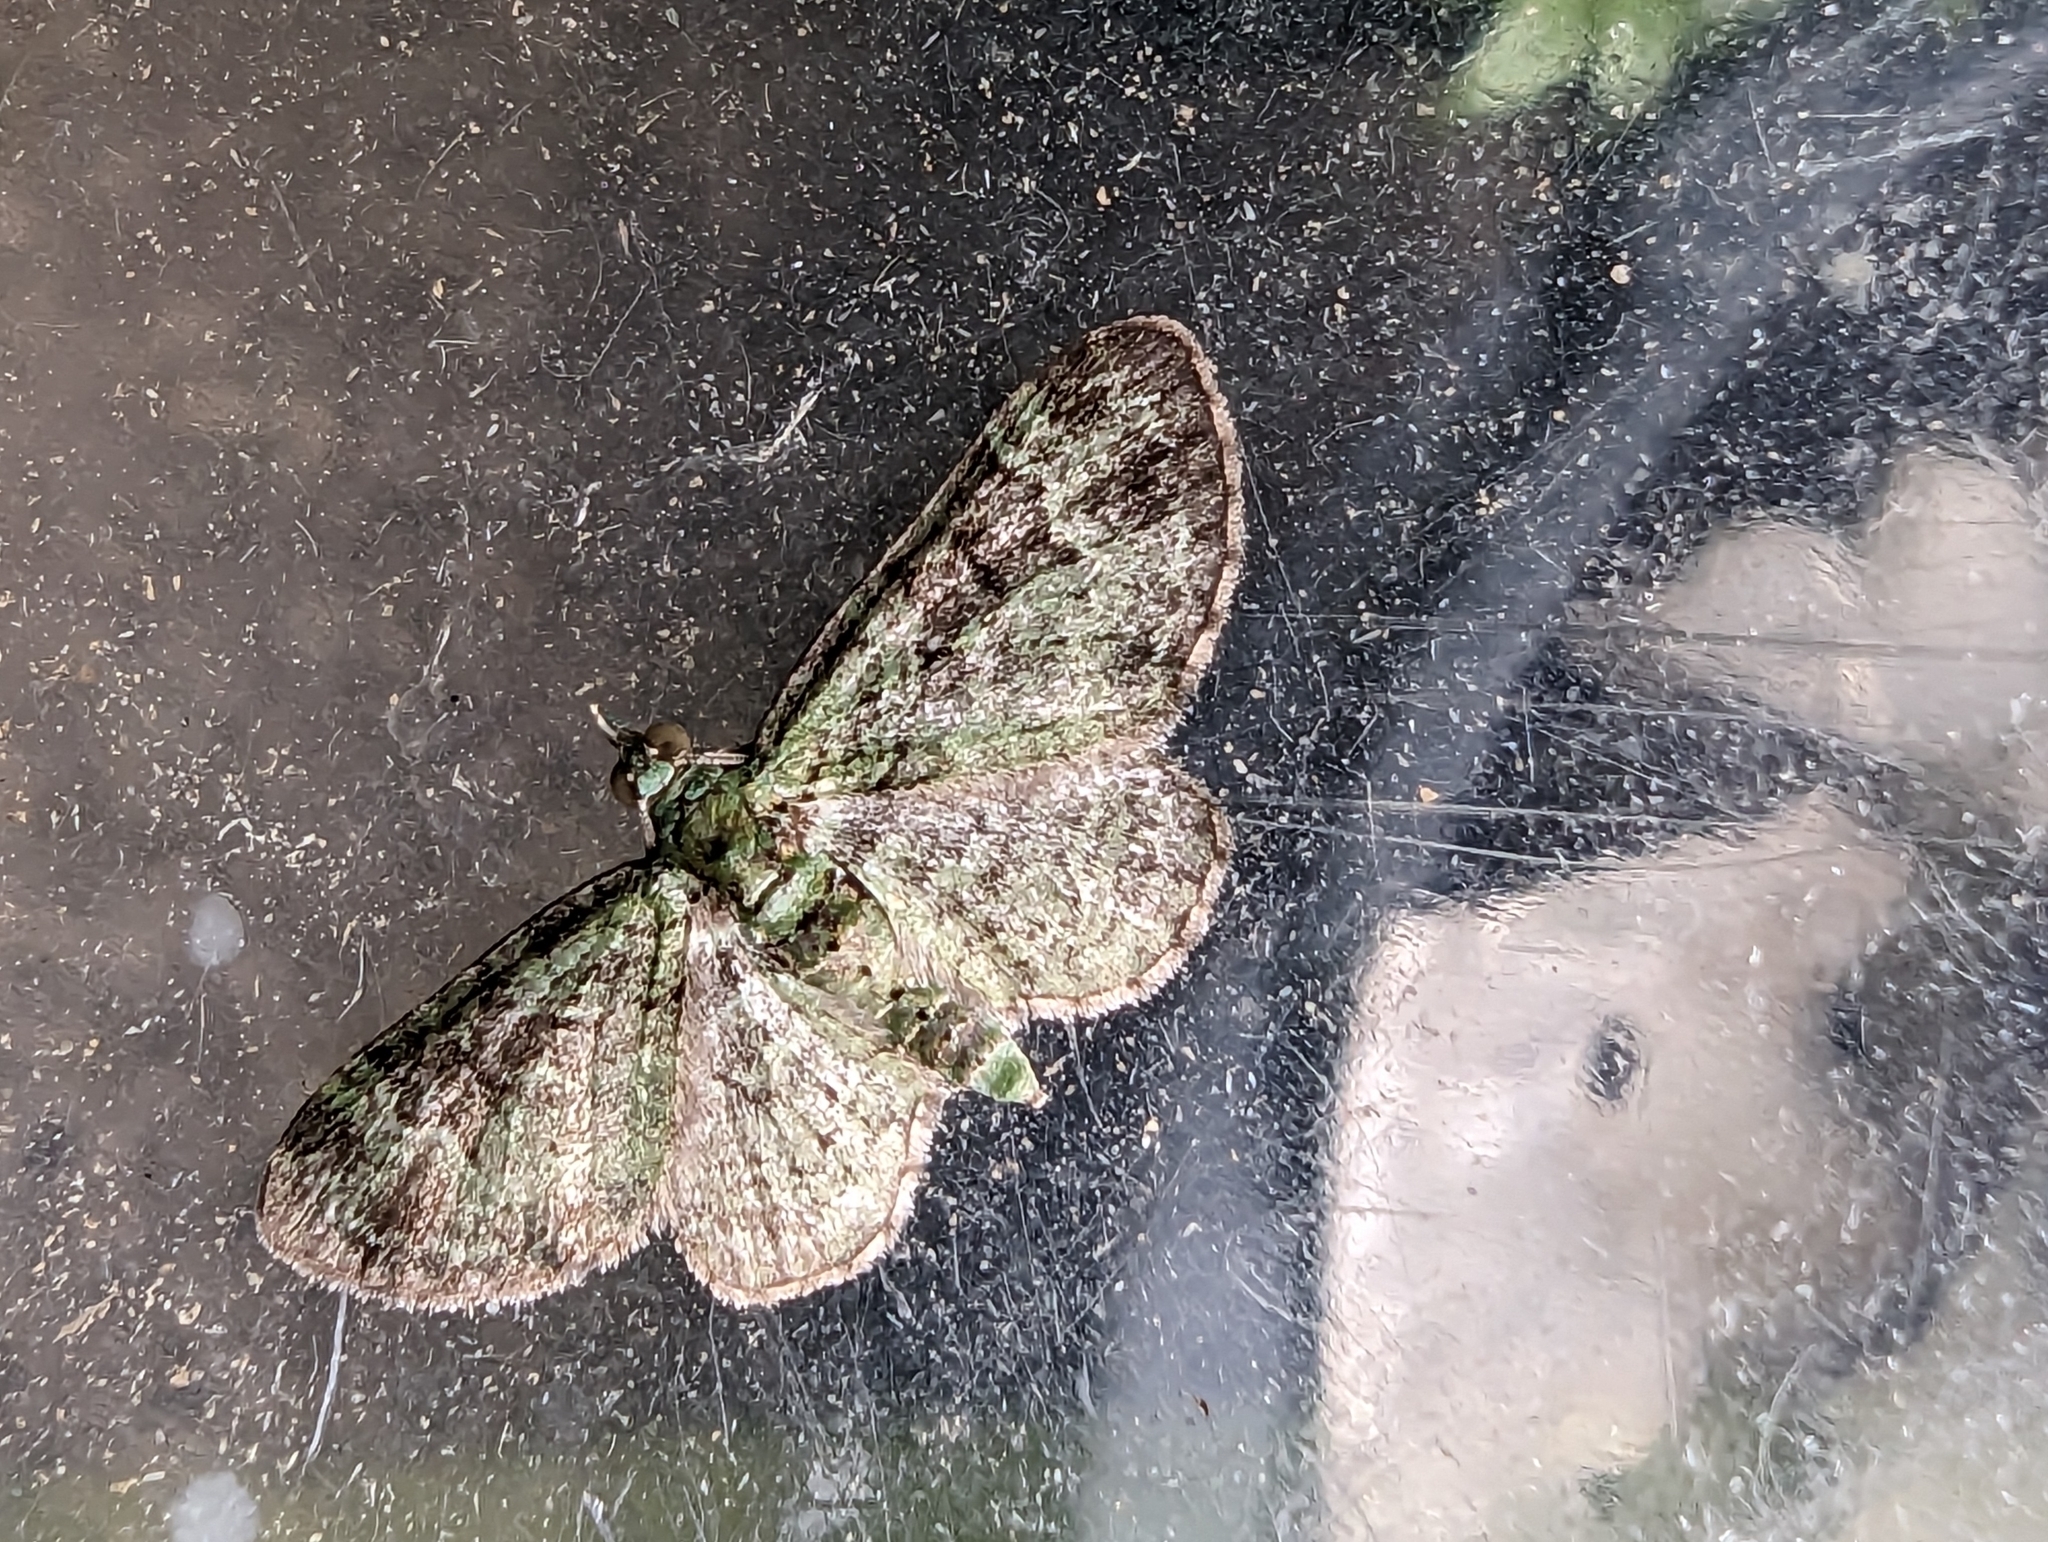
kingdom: Animalia
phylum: Arthropoda
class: Insecta
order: Lepidoptera
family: Geometridae
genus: Pasiphila
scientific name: Pasiphila rectangulata
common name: Green pug
